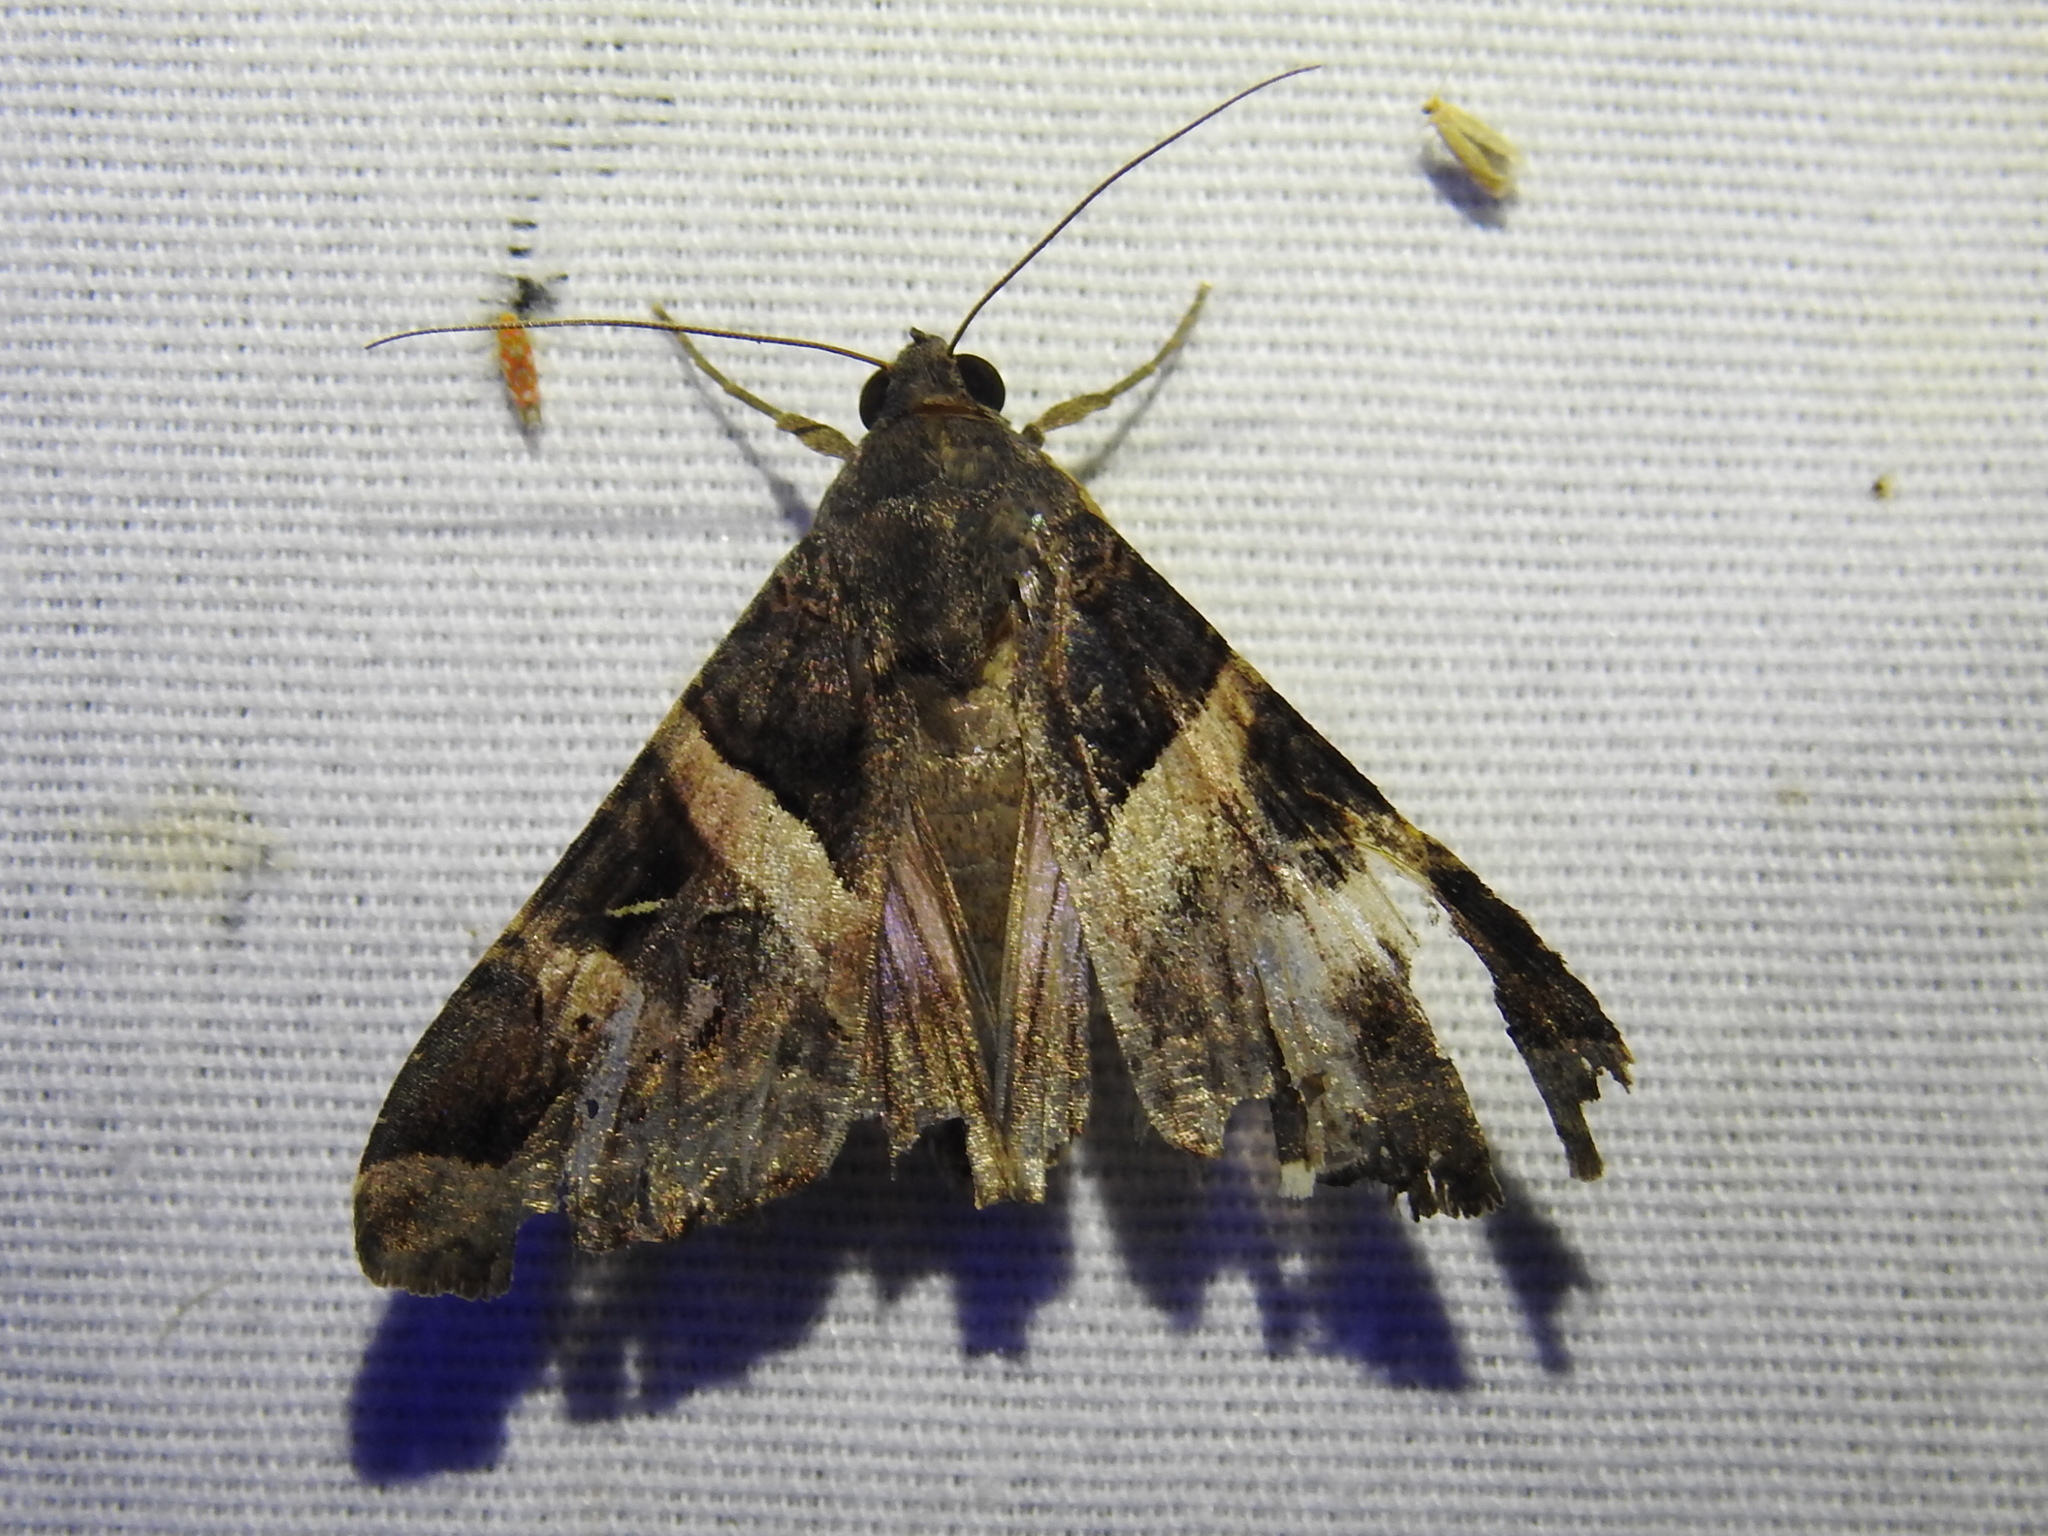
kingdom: Animalia
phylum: Arthropoda
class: Insecta
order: Lepidoptera
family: Erebidae
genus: Melipotis
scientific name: Melipotis indomita
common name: Moth
